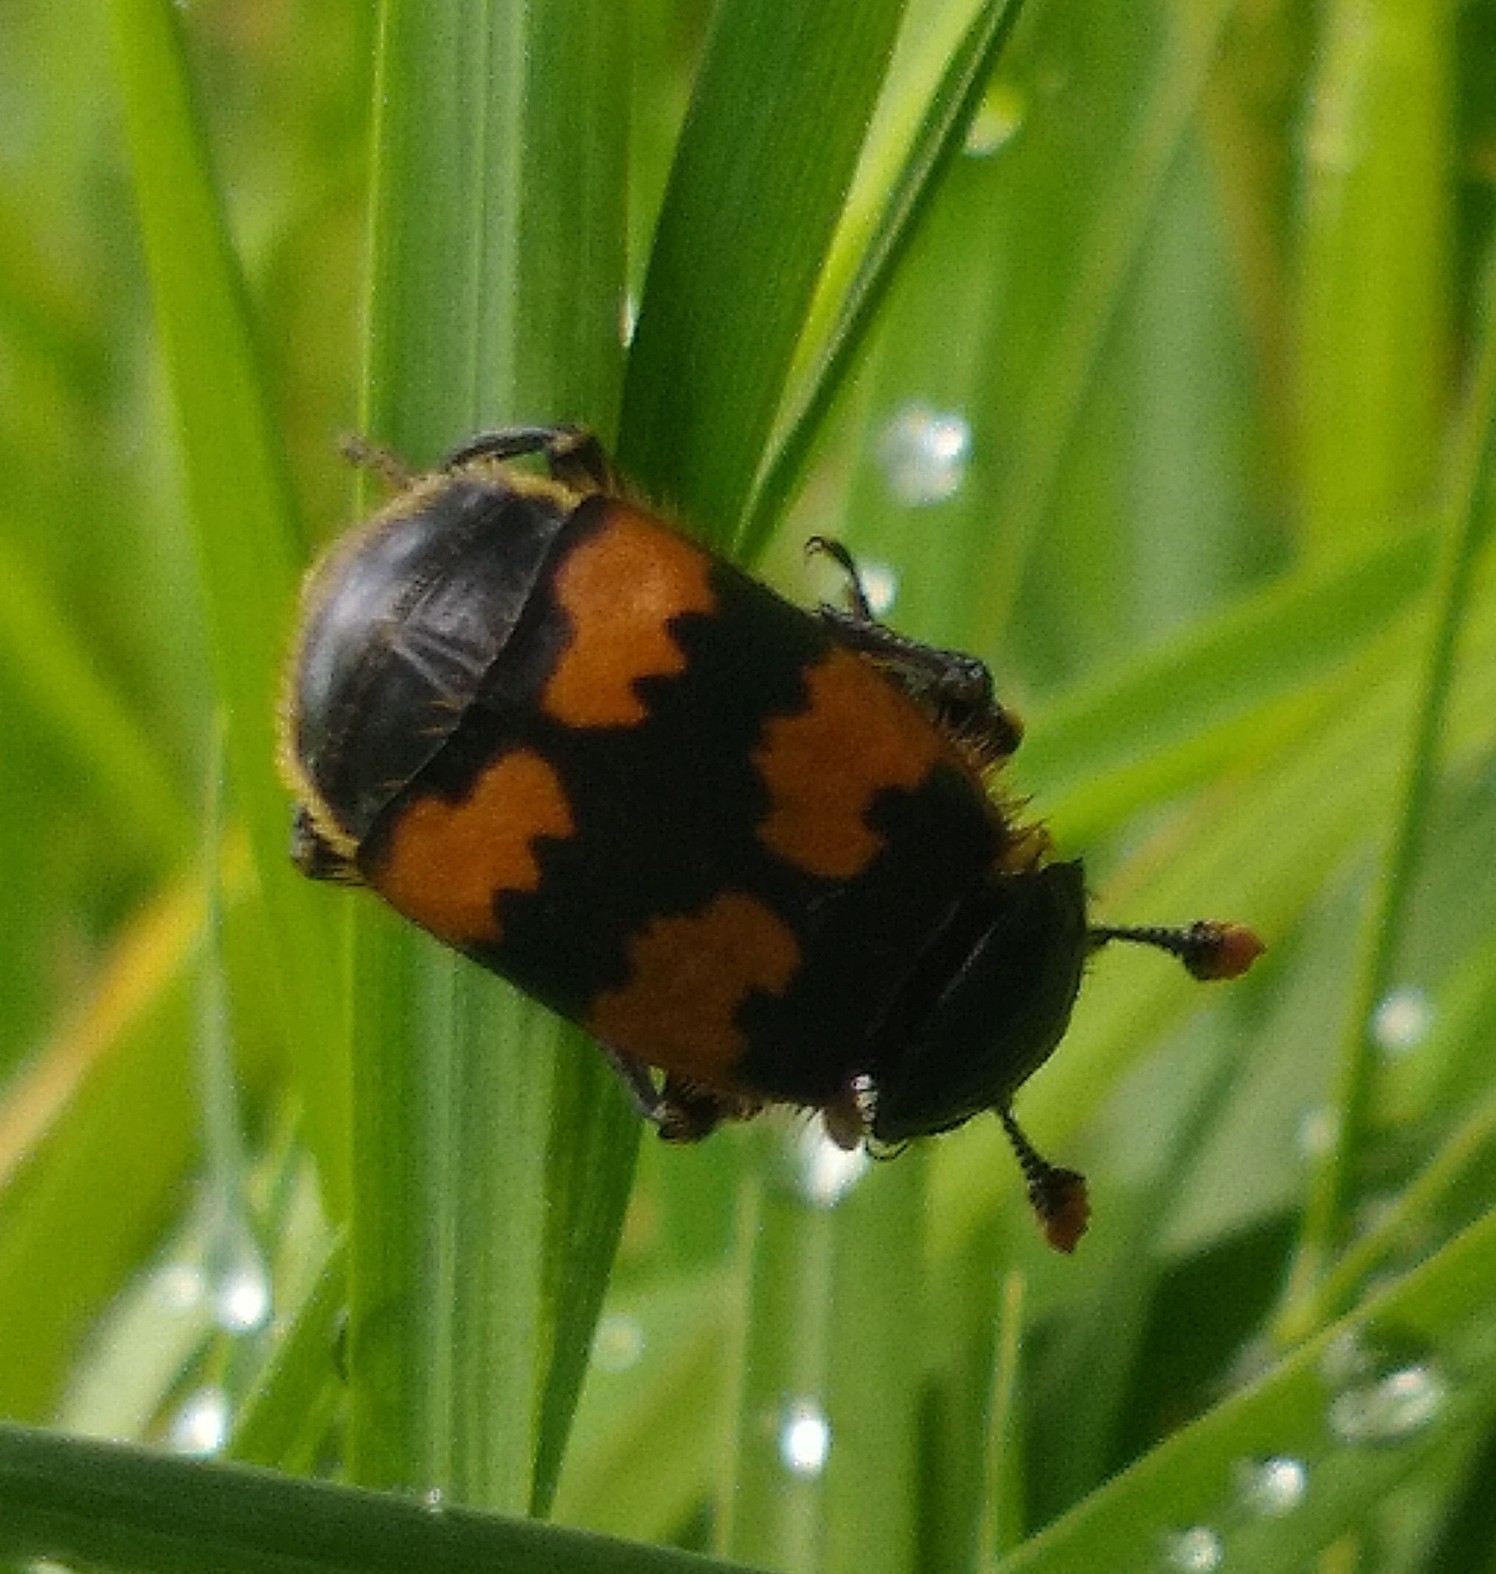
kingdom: Animalia
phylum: Arthropoda
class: Insecta
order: Coleoptera
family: Staphylinidae
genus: Nicrophorus
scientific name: Nicrophorus vespillo
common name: Common burying beetle
